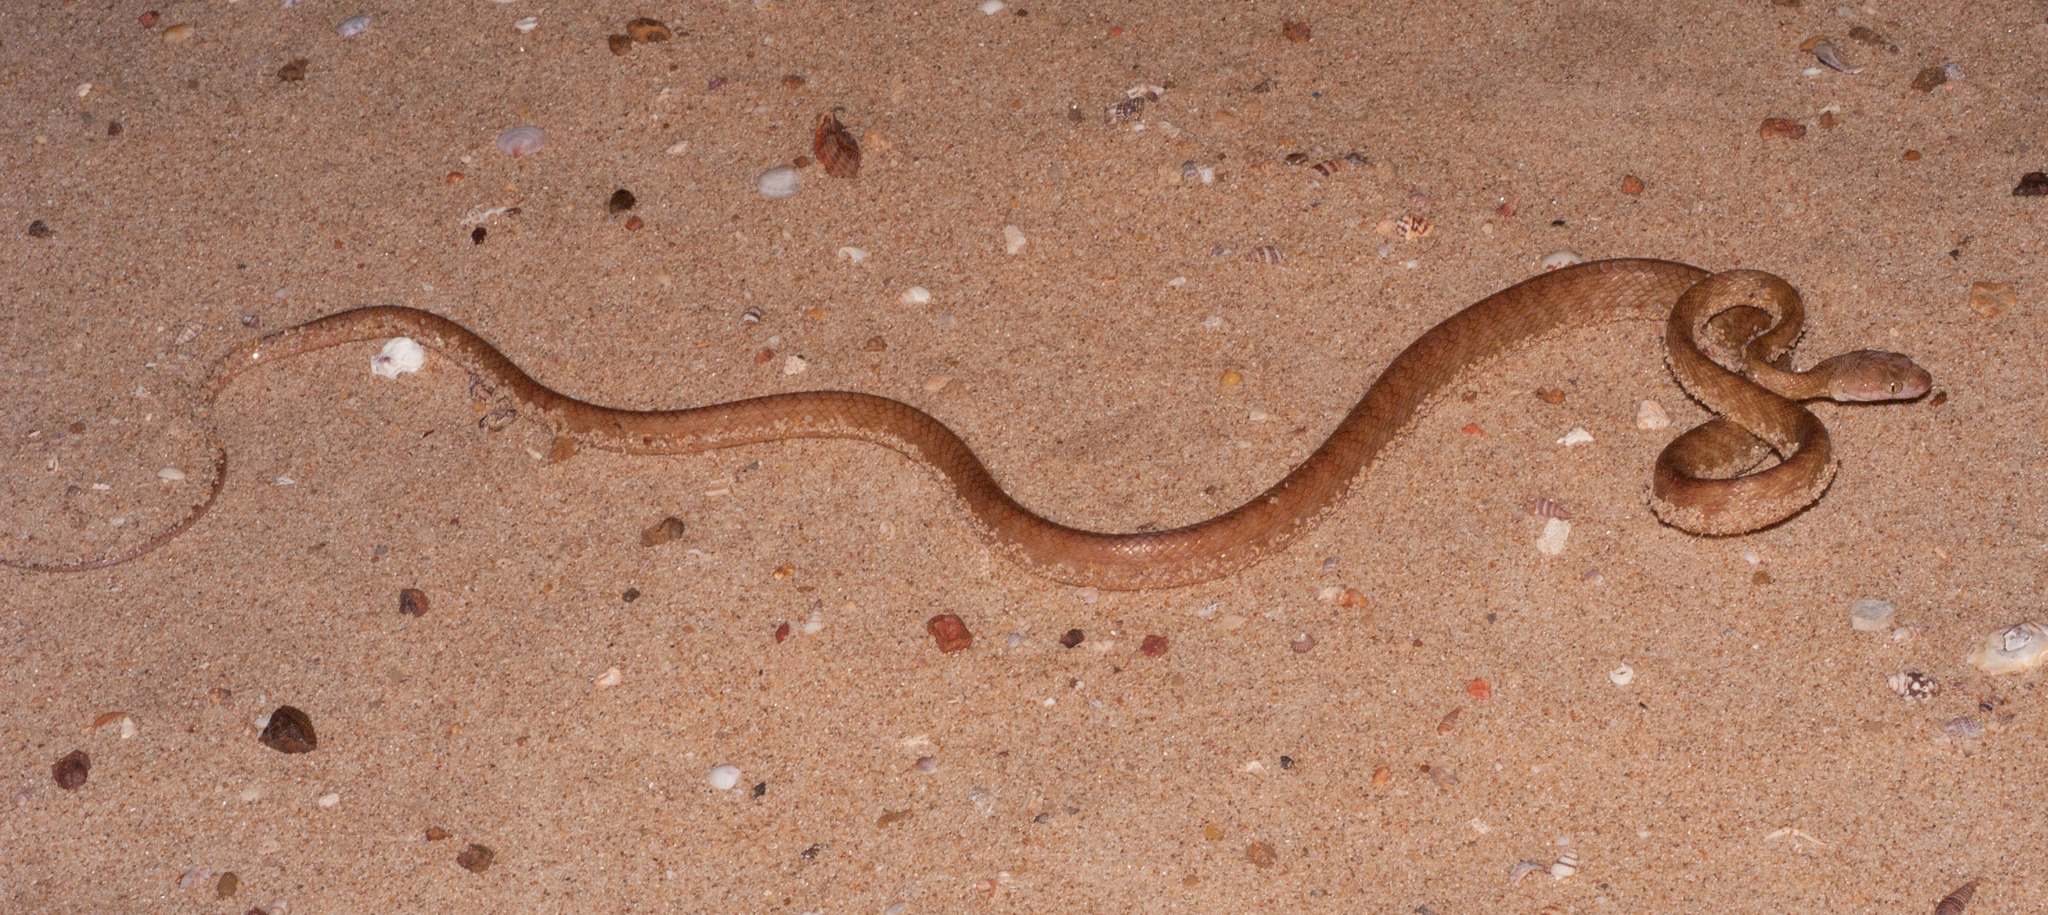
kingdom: Animalia
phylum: Chordata
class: Squamata
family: Colubridae
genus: Boiga
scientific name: Boiga irregularis
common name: Brown tree snake
